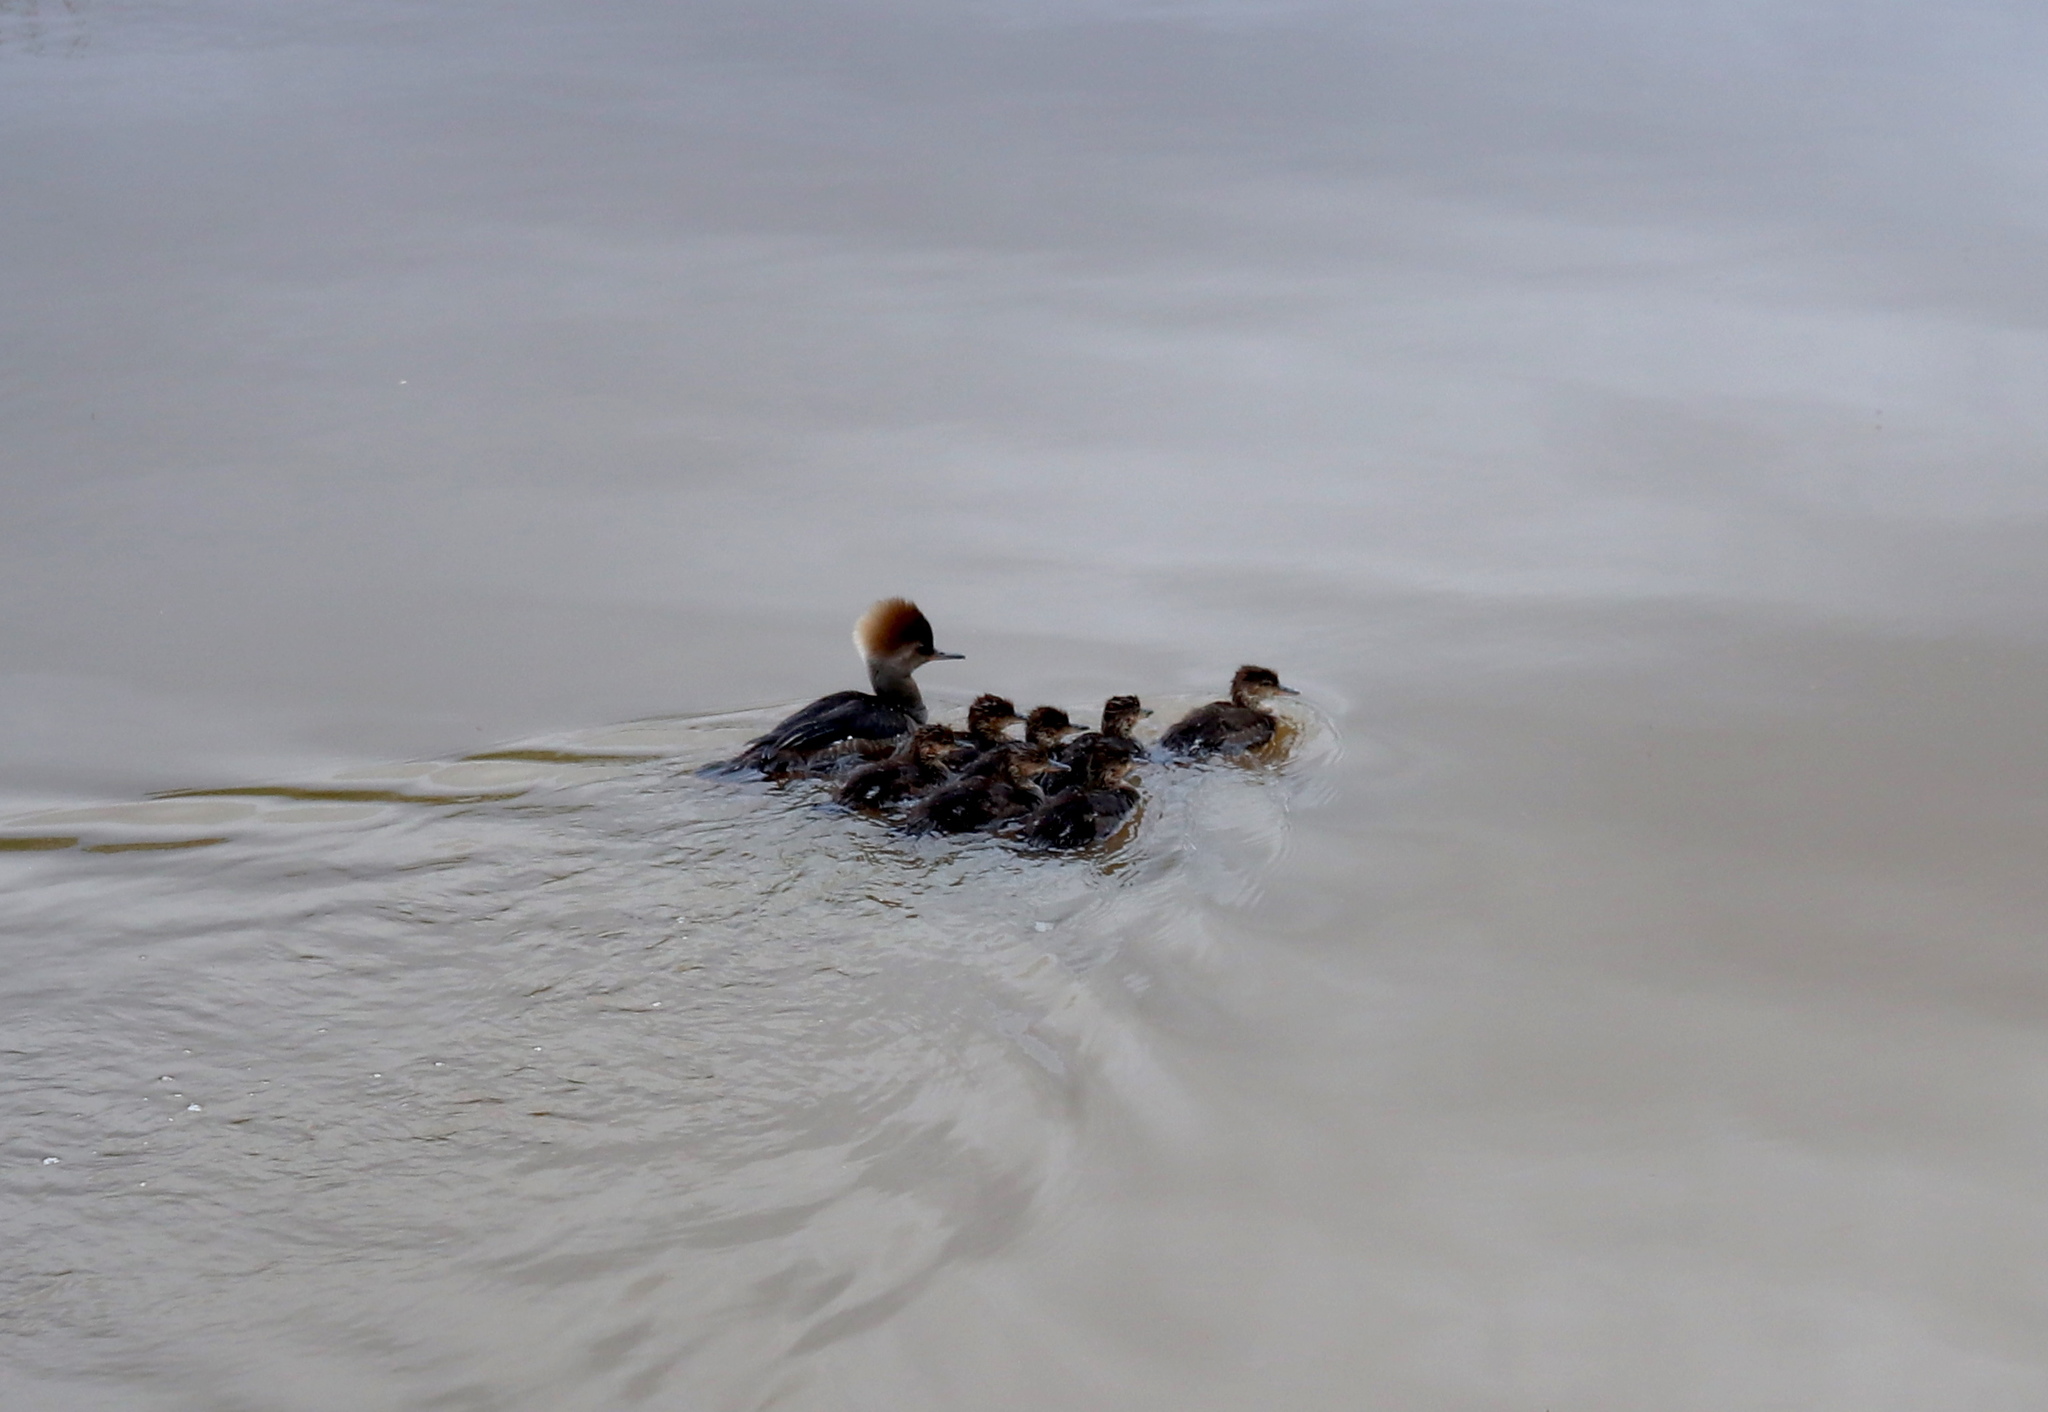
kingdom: Animalia
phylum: Chordata
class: Aves
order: Anseriformes
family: Anatidae
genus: Lophodytes
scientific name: Lophodytes cucullatus
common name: Hooded merganser
